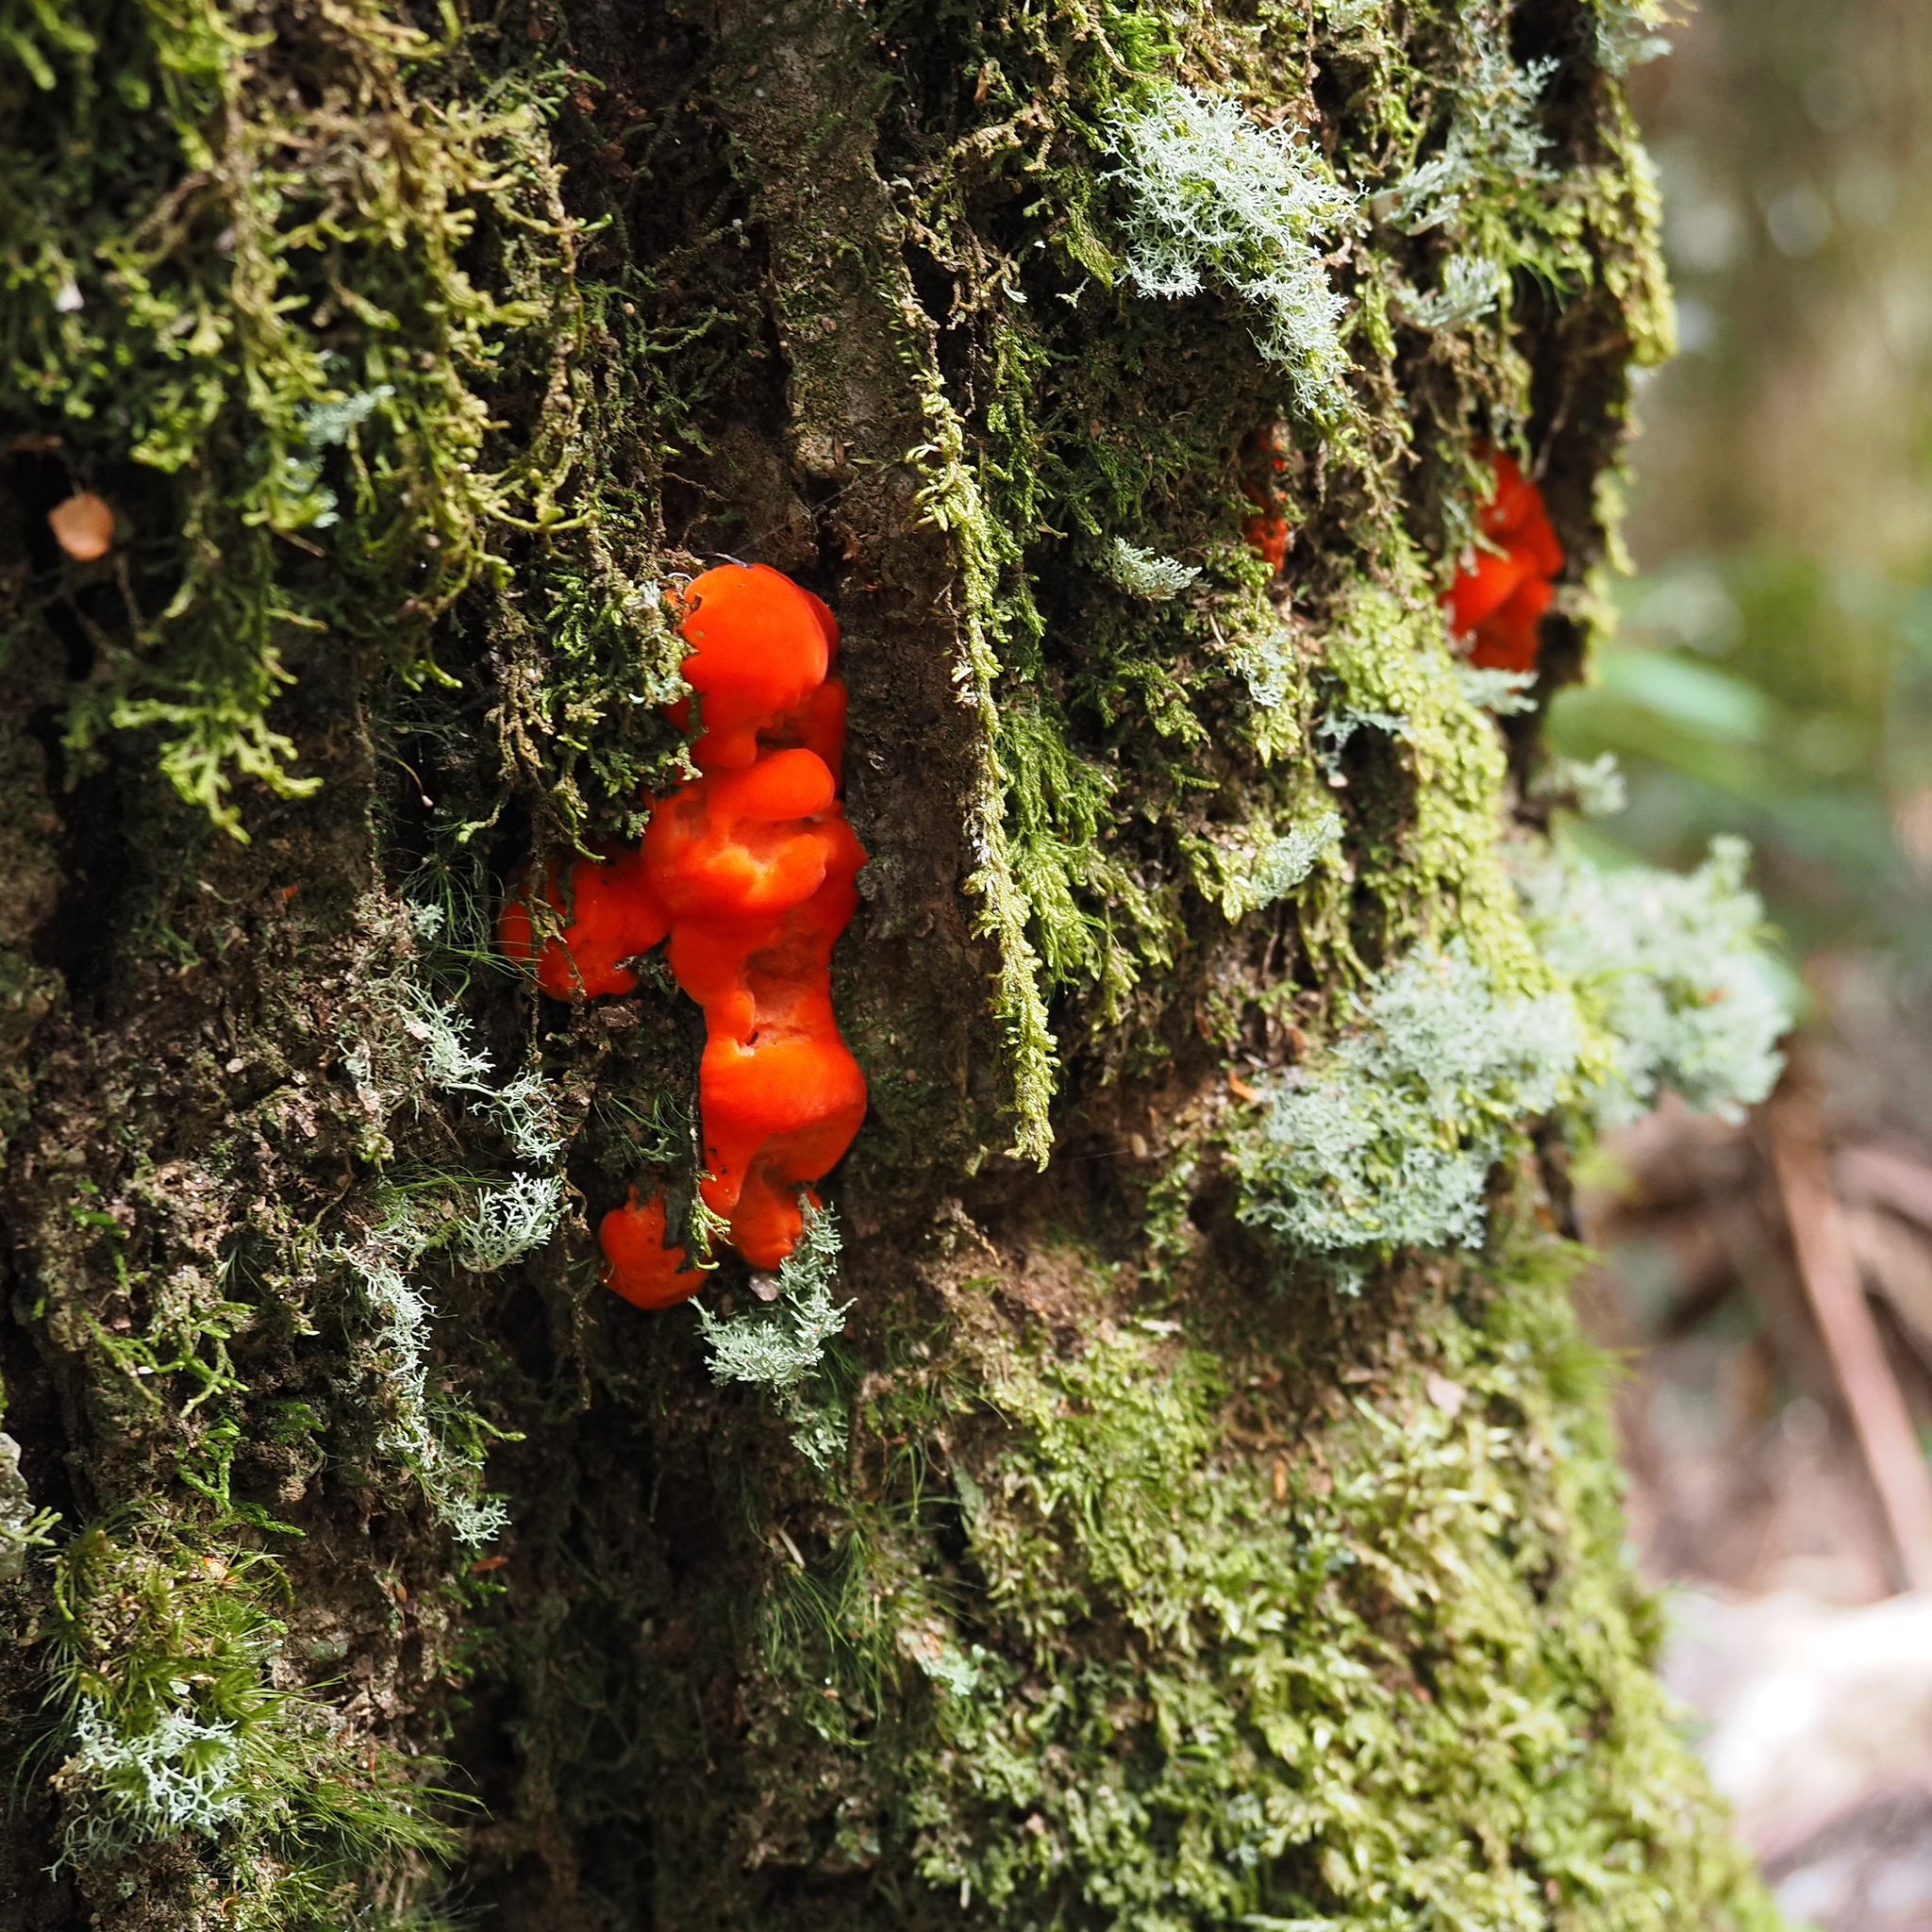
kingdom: Fungi
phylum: Basidiomycota
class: Agaricomycetes
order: Polyporales
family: Incrustoporiaceae
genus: Tyromyces
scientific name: Tyromyces pulcherrimus
